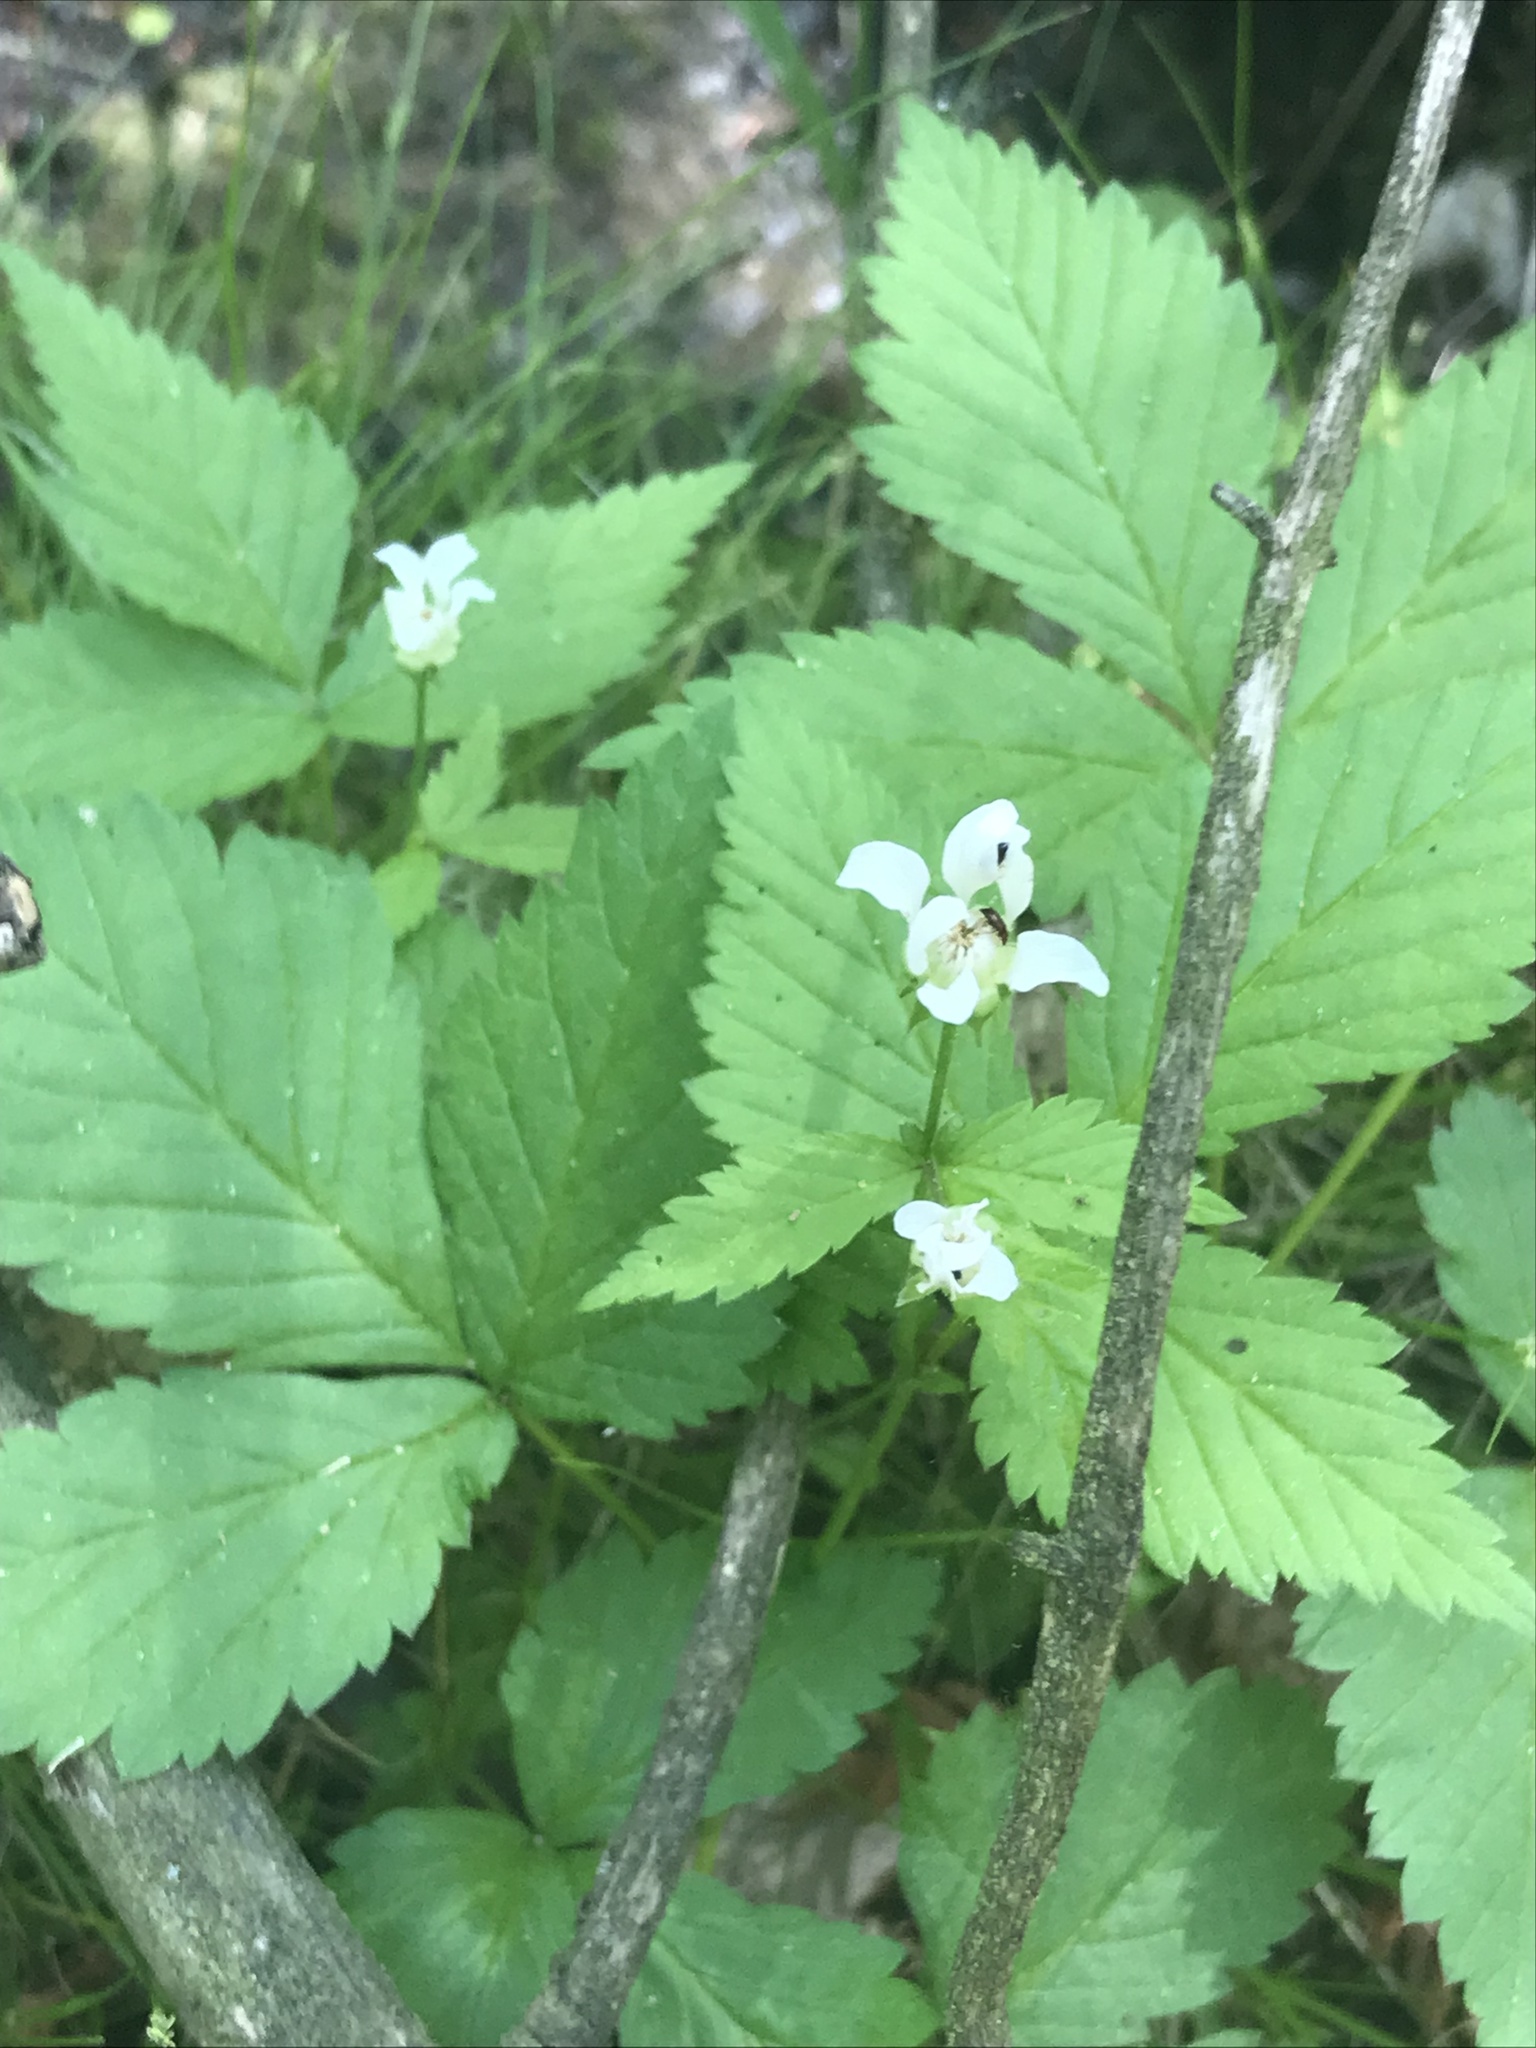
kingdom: Plantae
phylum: Tracheophyta
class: Magnoliopsida
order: Rosales
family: Rosaceae
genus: Rubus
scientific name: Rubus pubescens
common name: Dwarf raspberry
